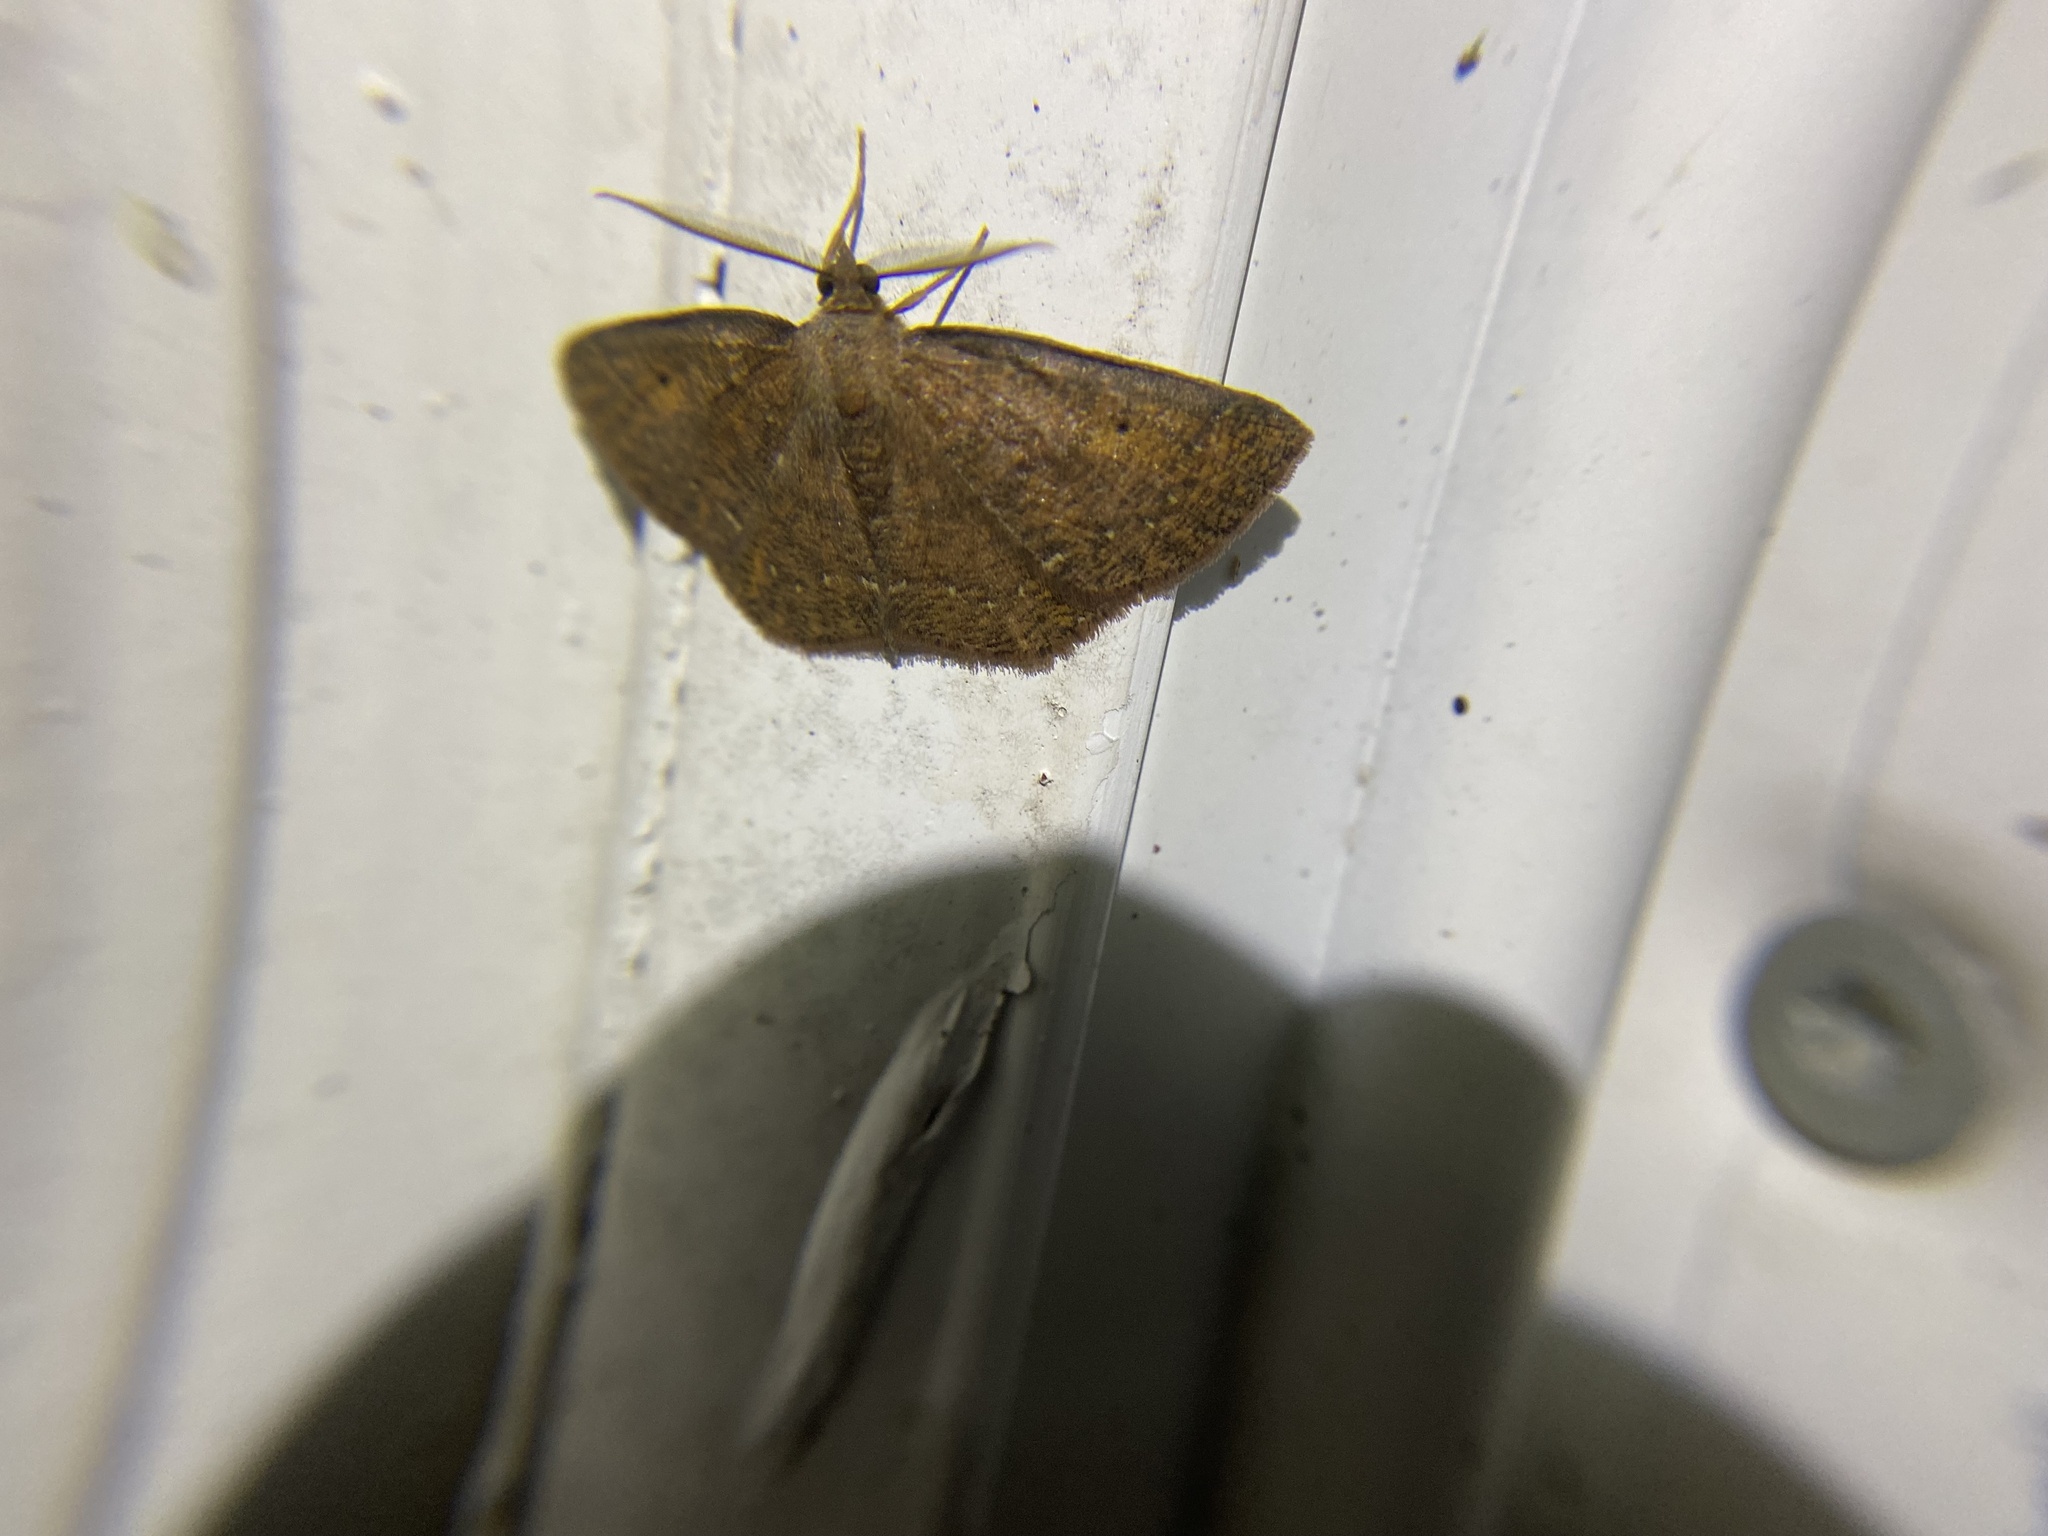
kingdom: Animalia
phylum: Arthropoda
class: Insecta
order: Lepidoptera
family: Geometridae
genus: Ilexia
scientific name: Ilexia intractata
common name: Black-dotted ruddy moth
